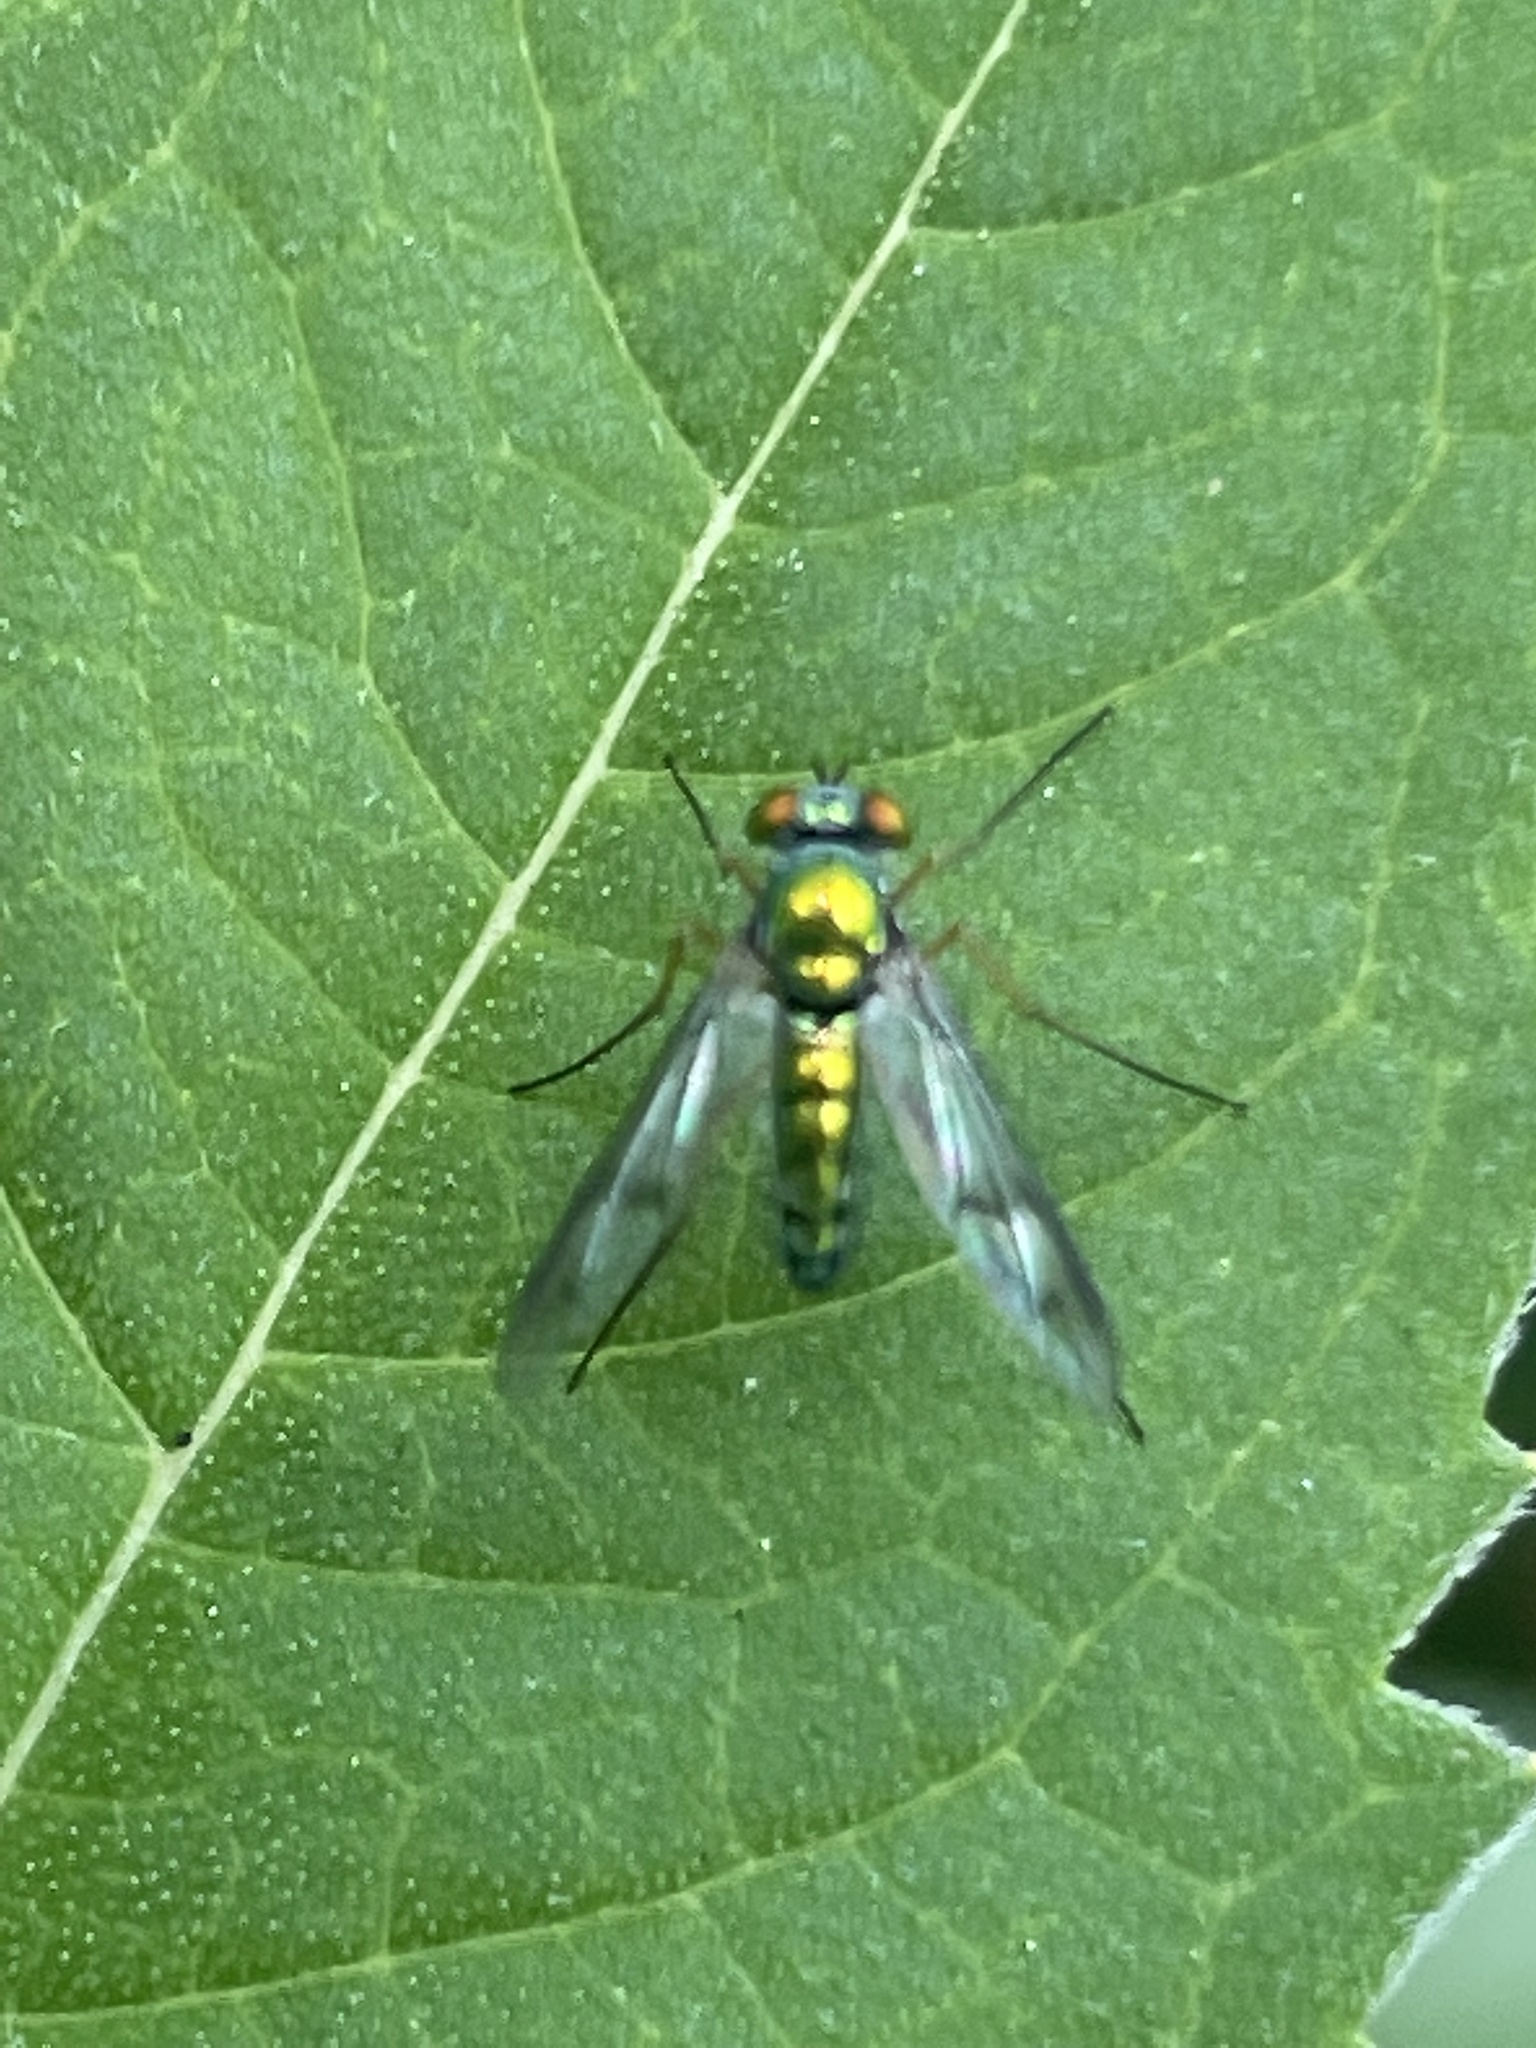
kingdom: Animalia
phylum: Arthropoda
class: Insecta
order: Diptera
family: Dolichopodidae
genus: Condylostylus
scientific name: Condylostylus
